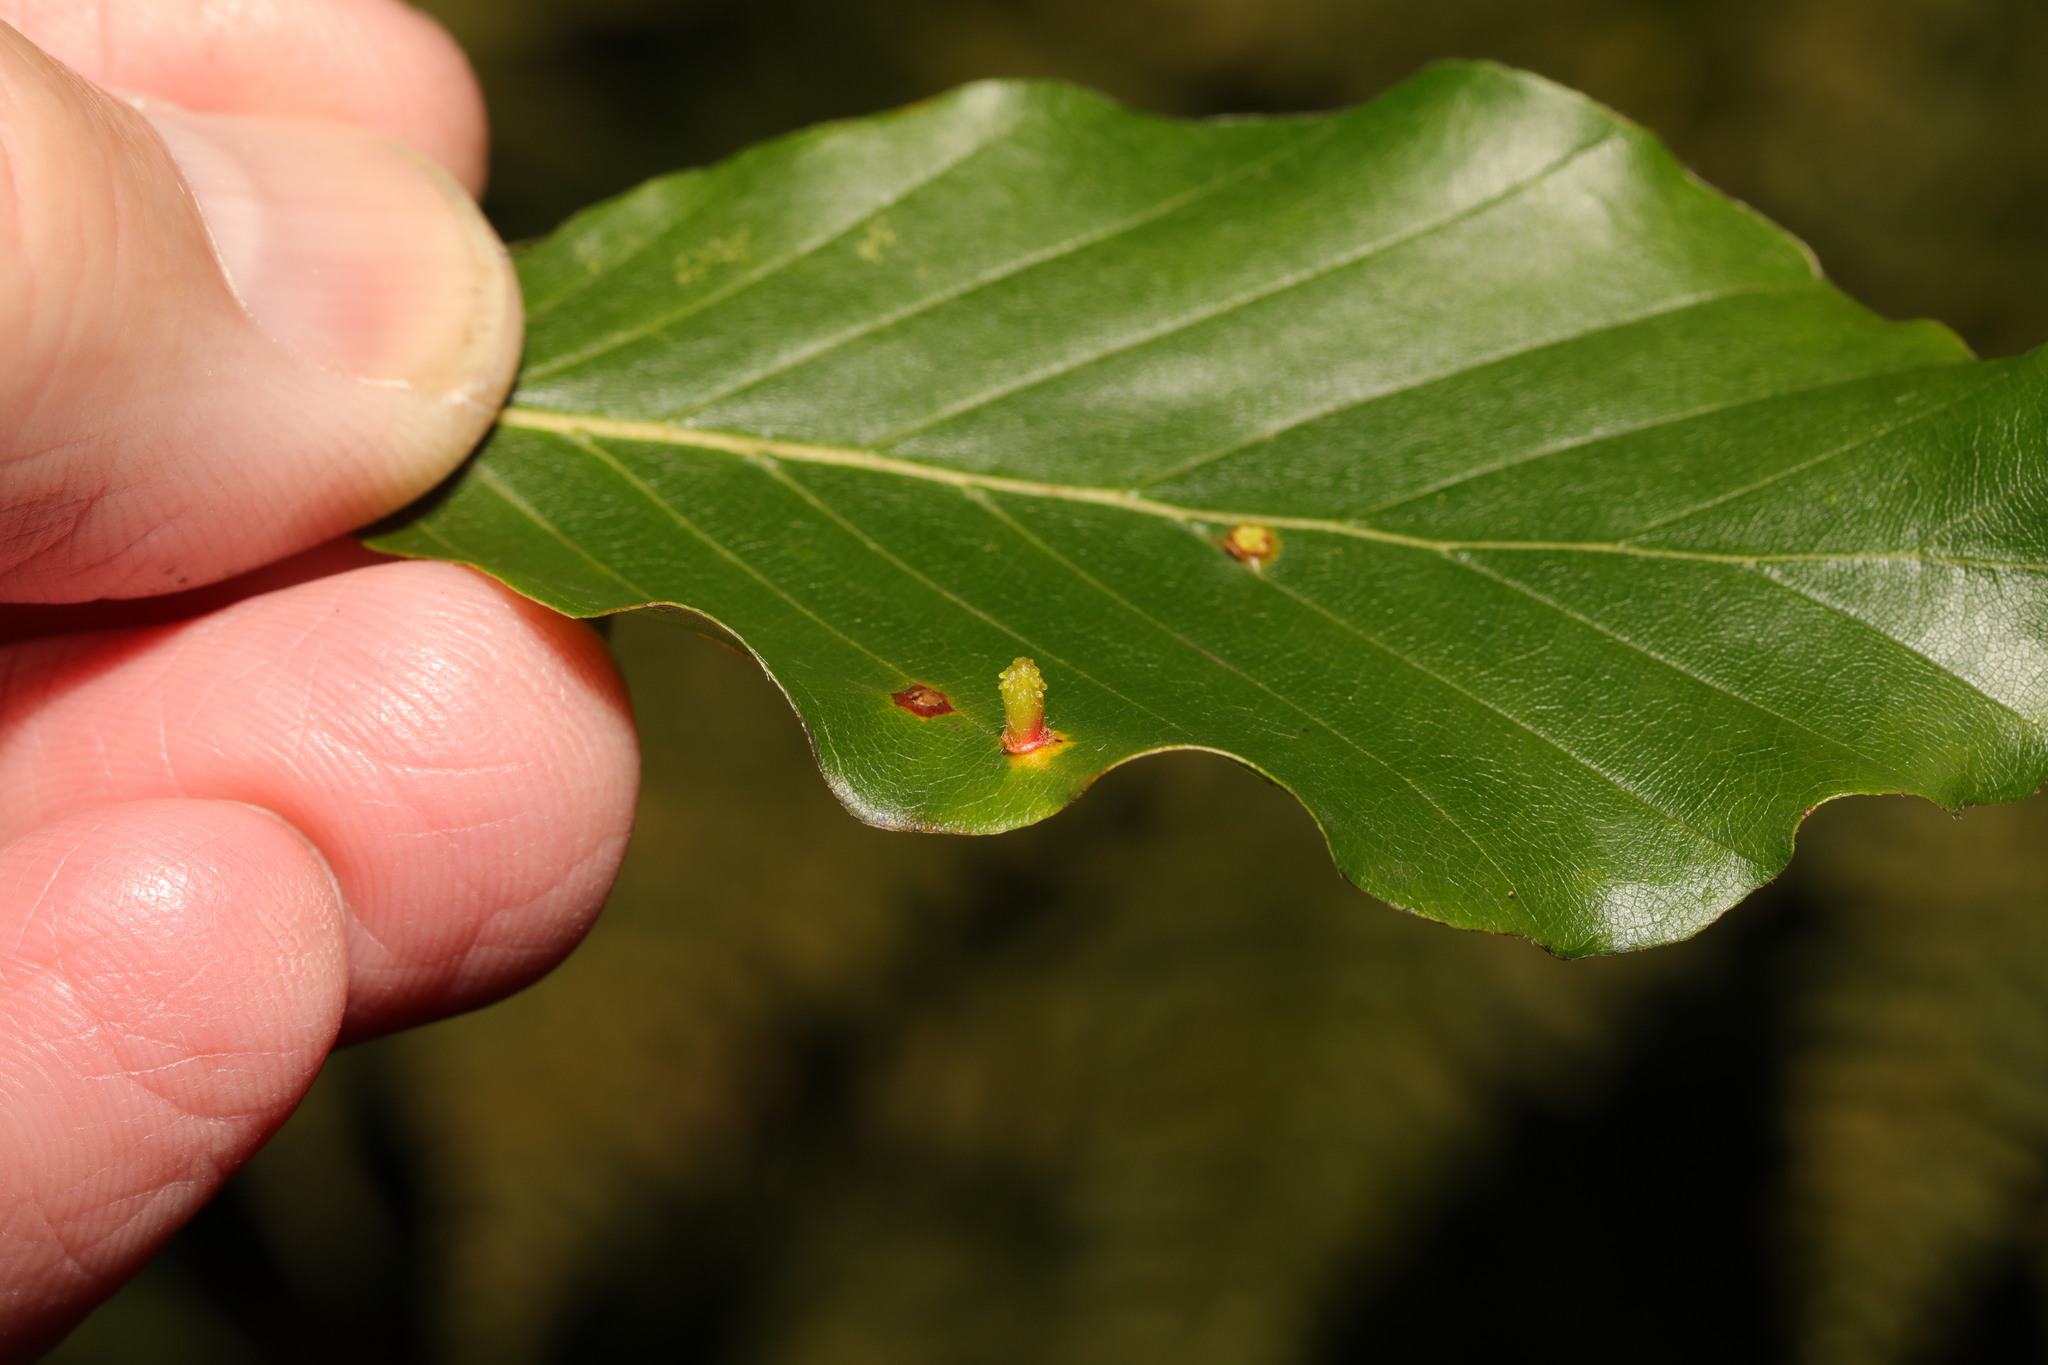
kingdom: Animalia
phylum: Arthropoda
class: Insecta
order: Diptera
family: Cecidomyiidae
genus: Hartigiola
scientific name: Hartigiola annulipes
